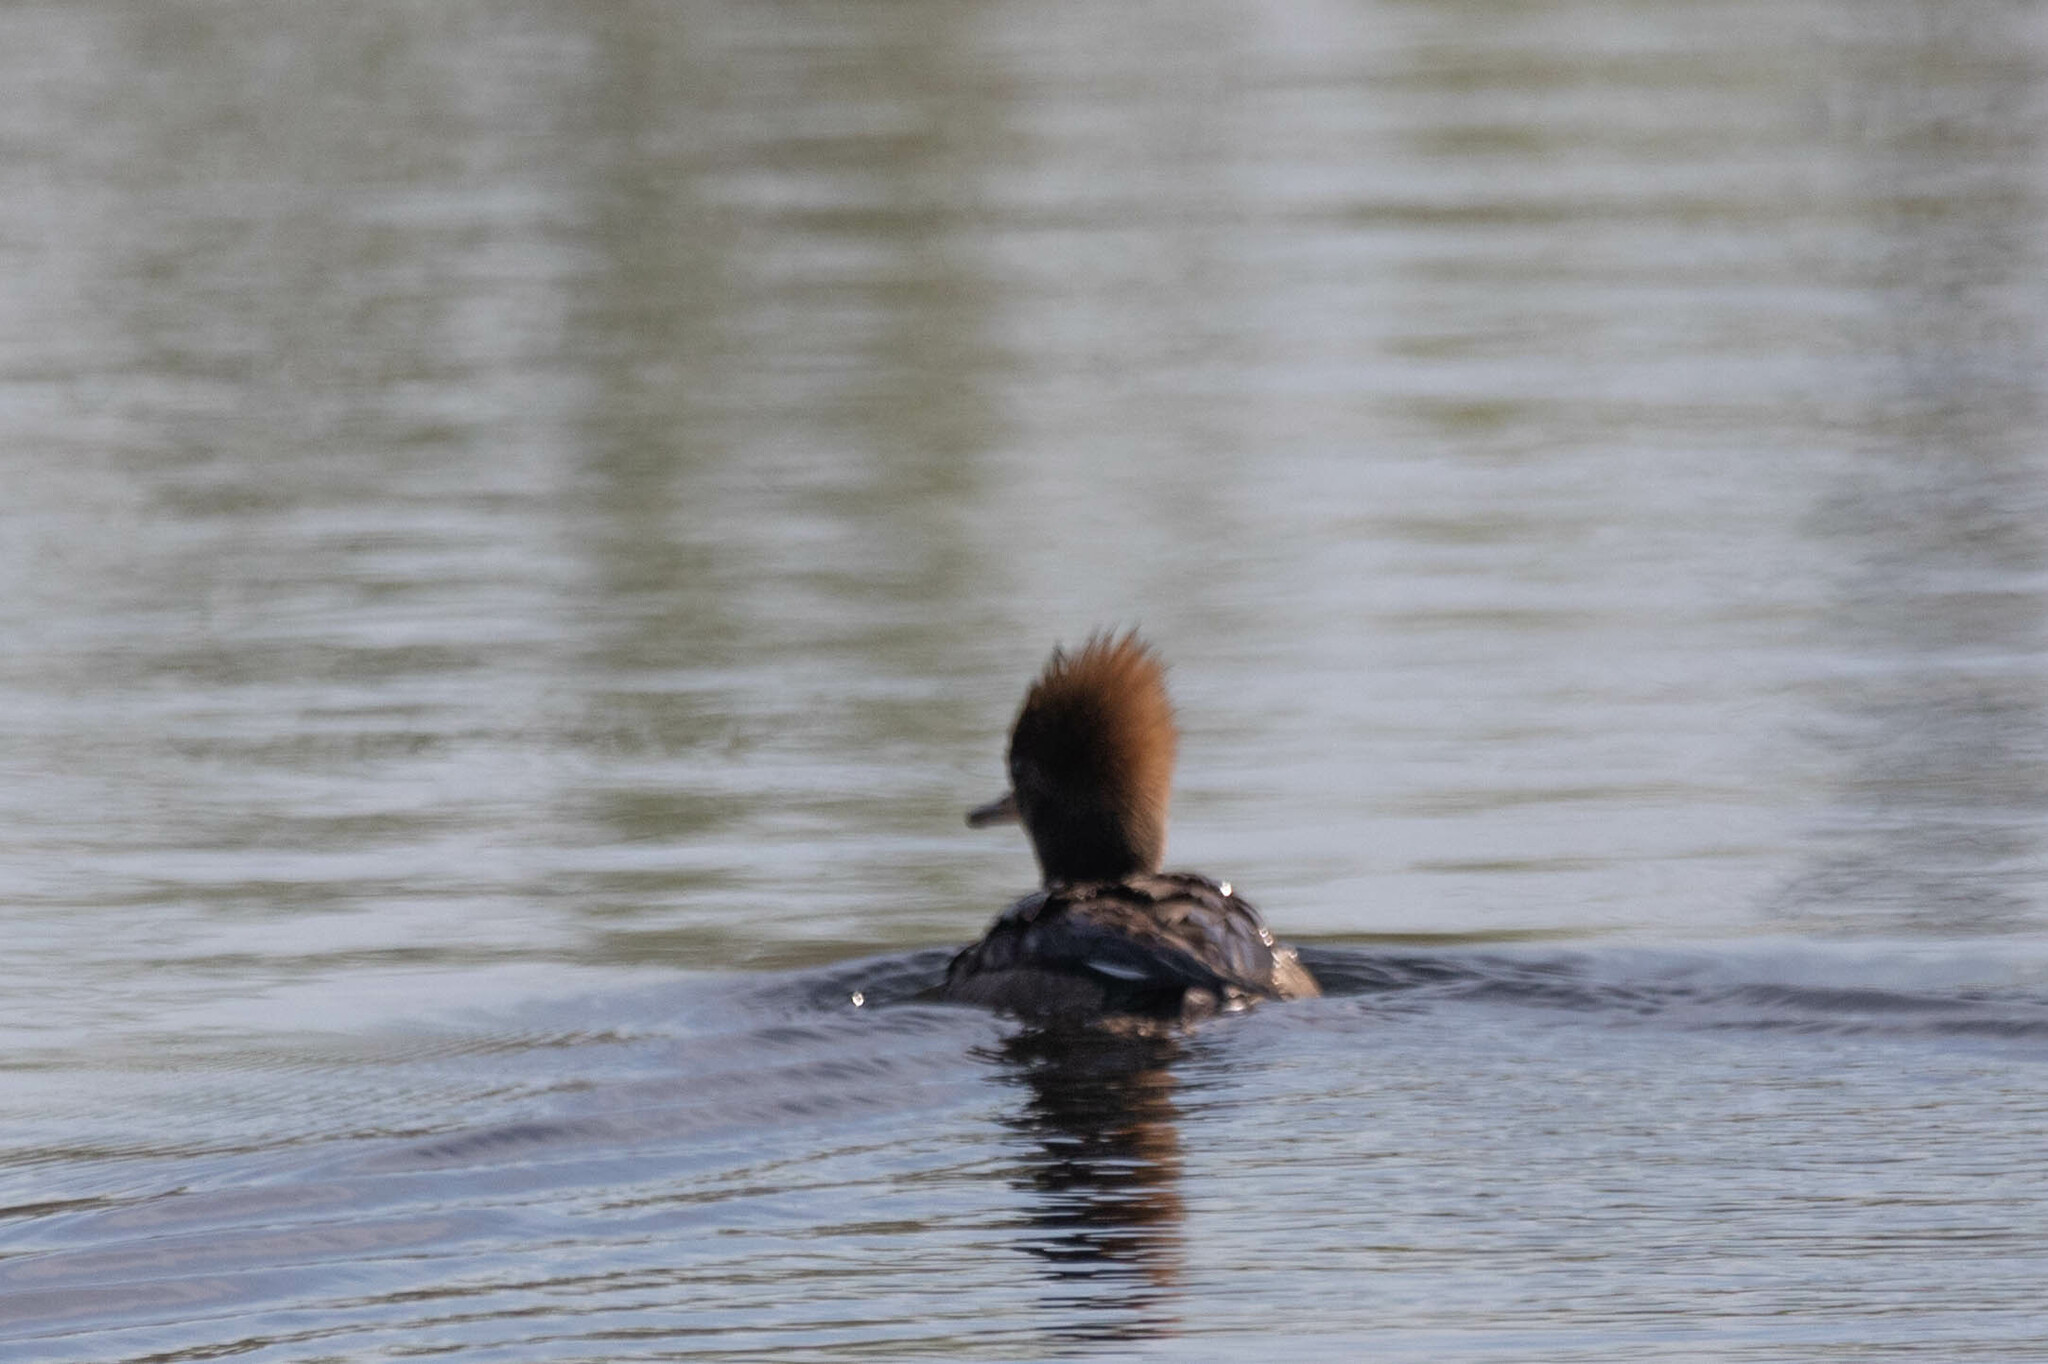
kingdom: Animalia
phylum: Chordata
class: Aves
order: Anseriformes
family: Anatidae
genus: Lophodytes
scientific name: Lophodytes cucullatus
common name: Hooded merganser
